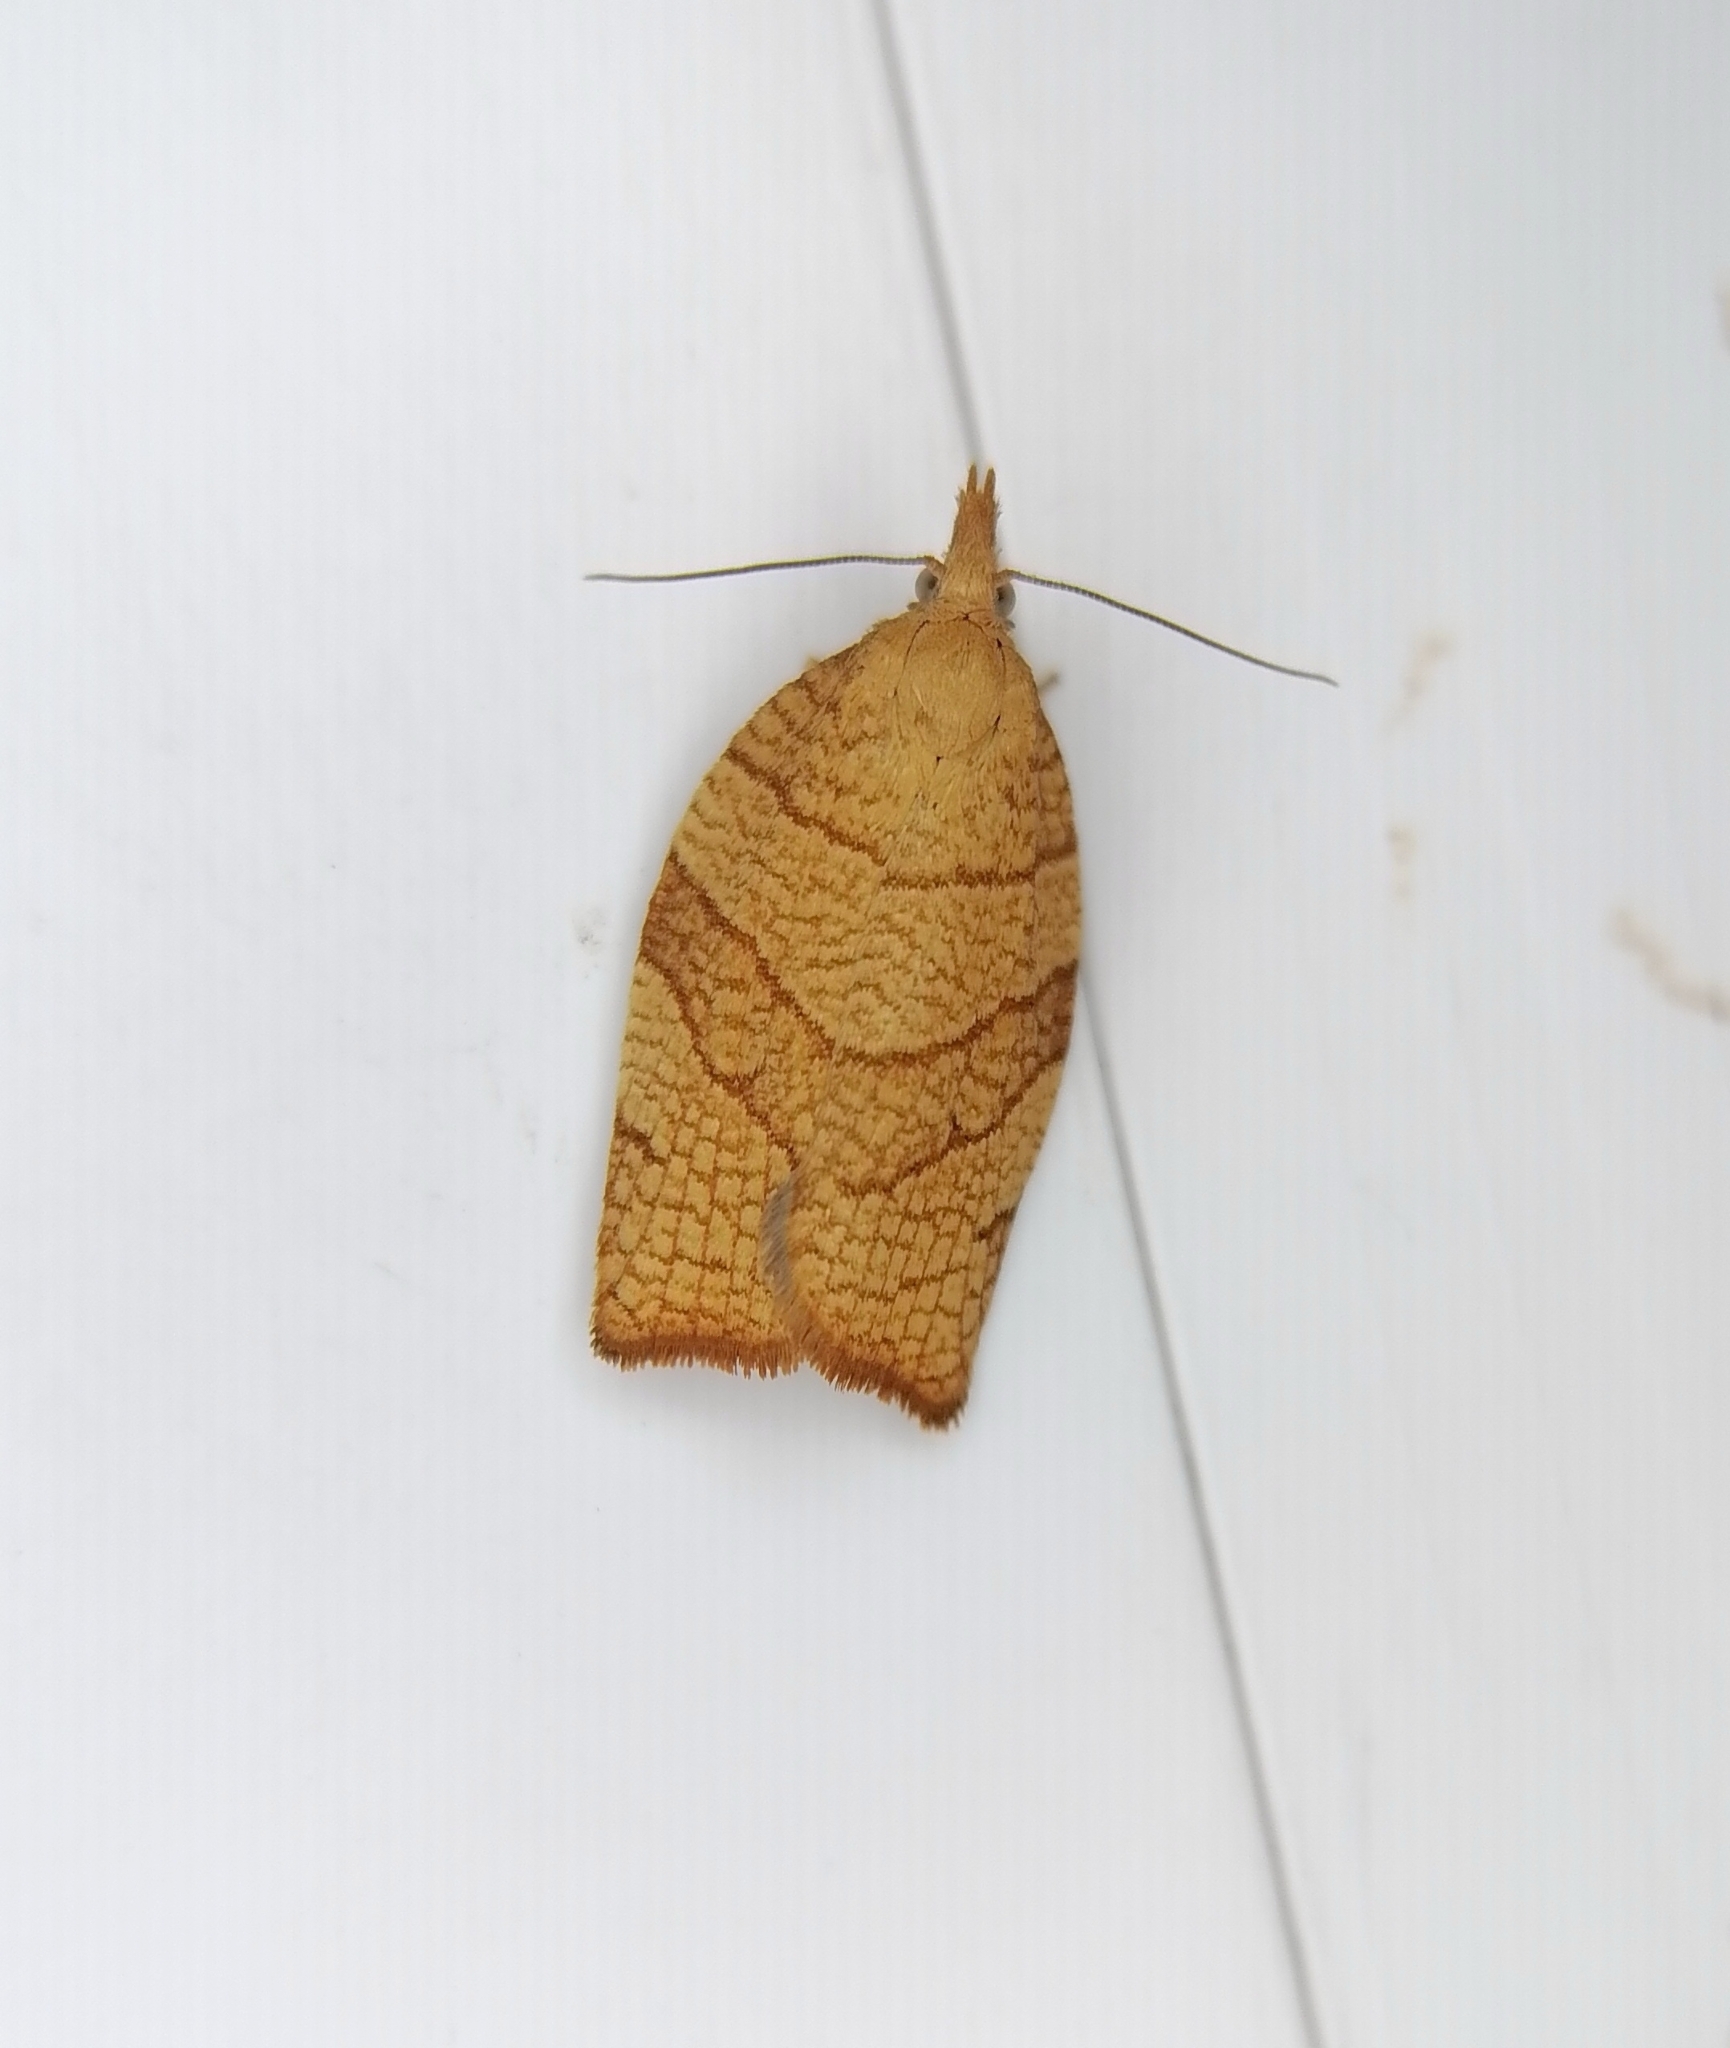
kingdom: Animalia
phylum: Arthropoda
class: Insecta
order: Lepidoptera
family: Tortricidae
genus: Pandemis
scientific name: Pandemis corylana
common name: Chequered fruit-tree tortrix
